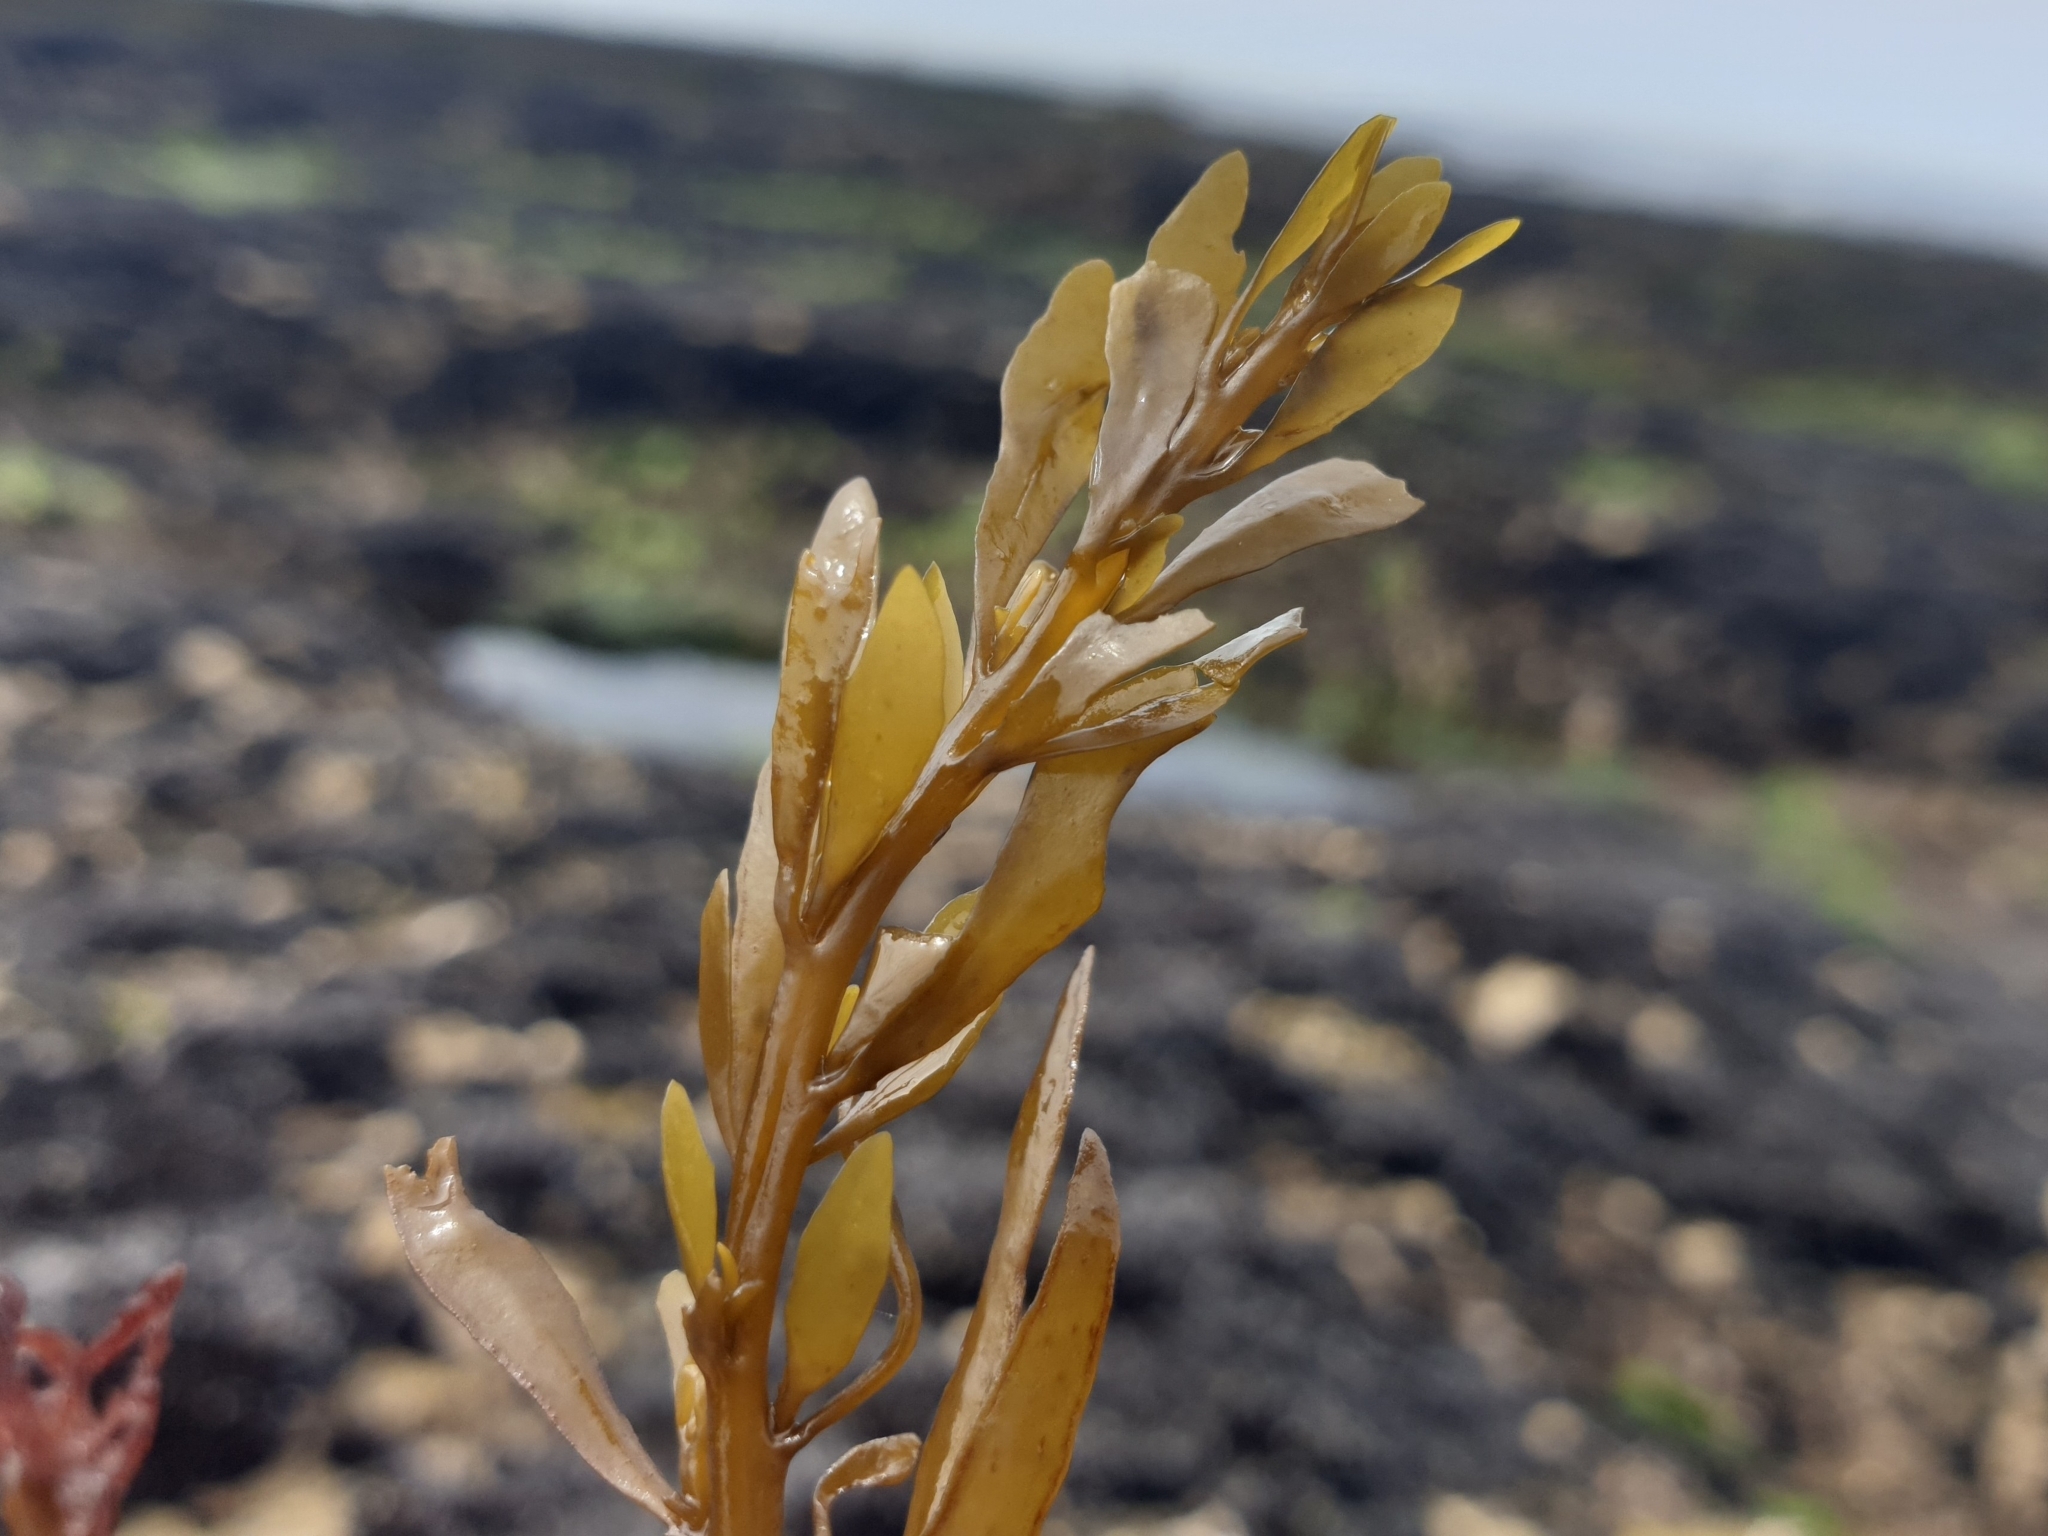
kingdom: Chromista
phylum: Ochrophyta
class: Phaeophyceae
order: Fucales
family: Sargassaceae
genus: Sargassum
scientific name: Sargassum muticum
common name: Japweed
